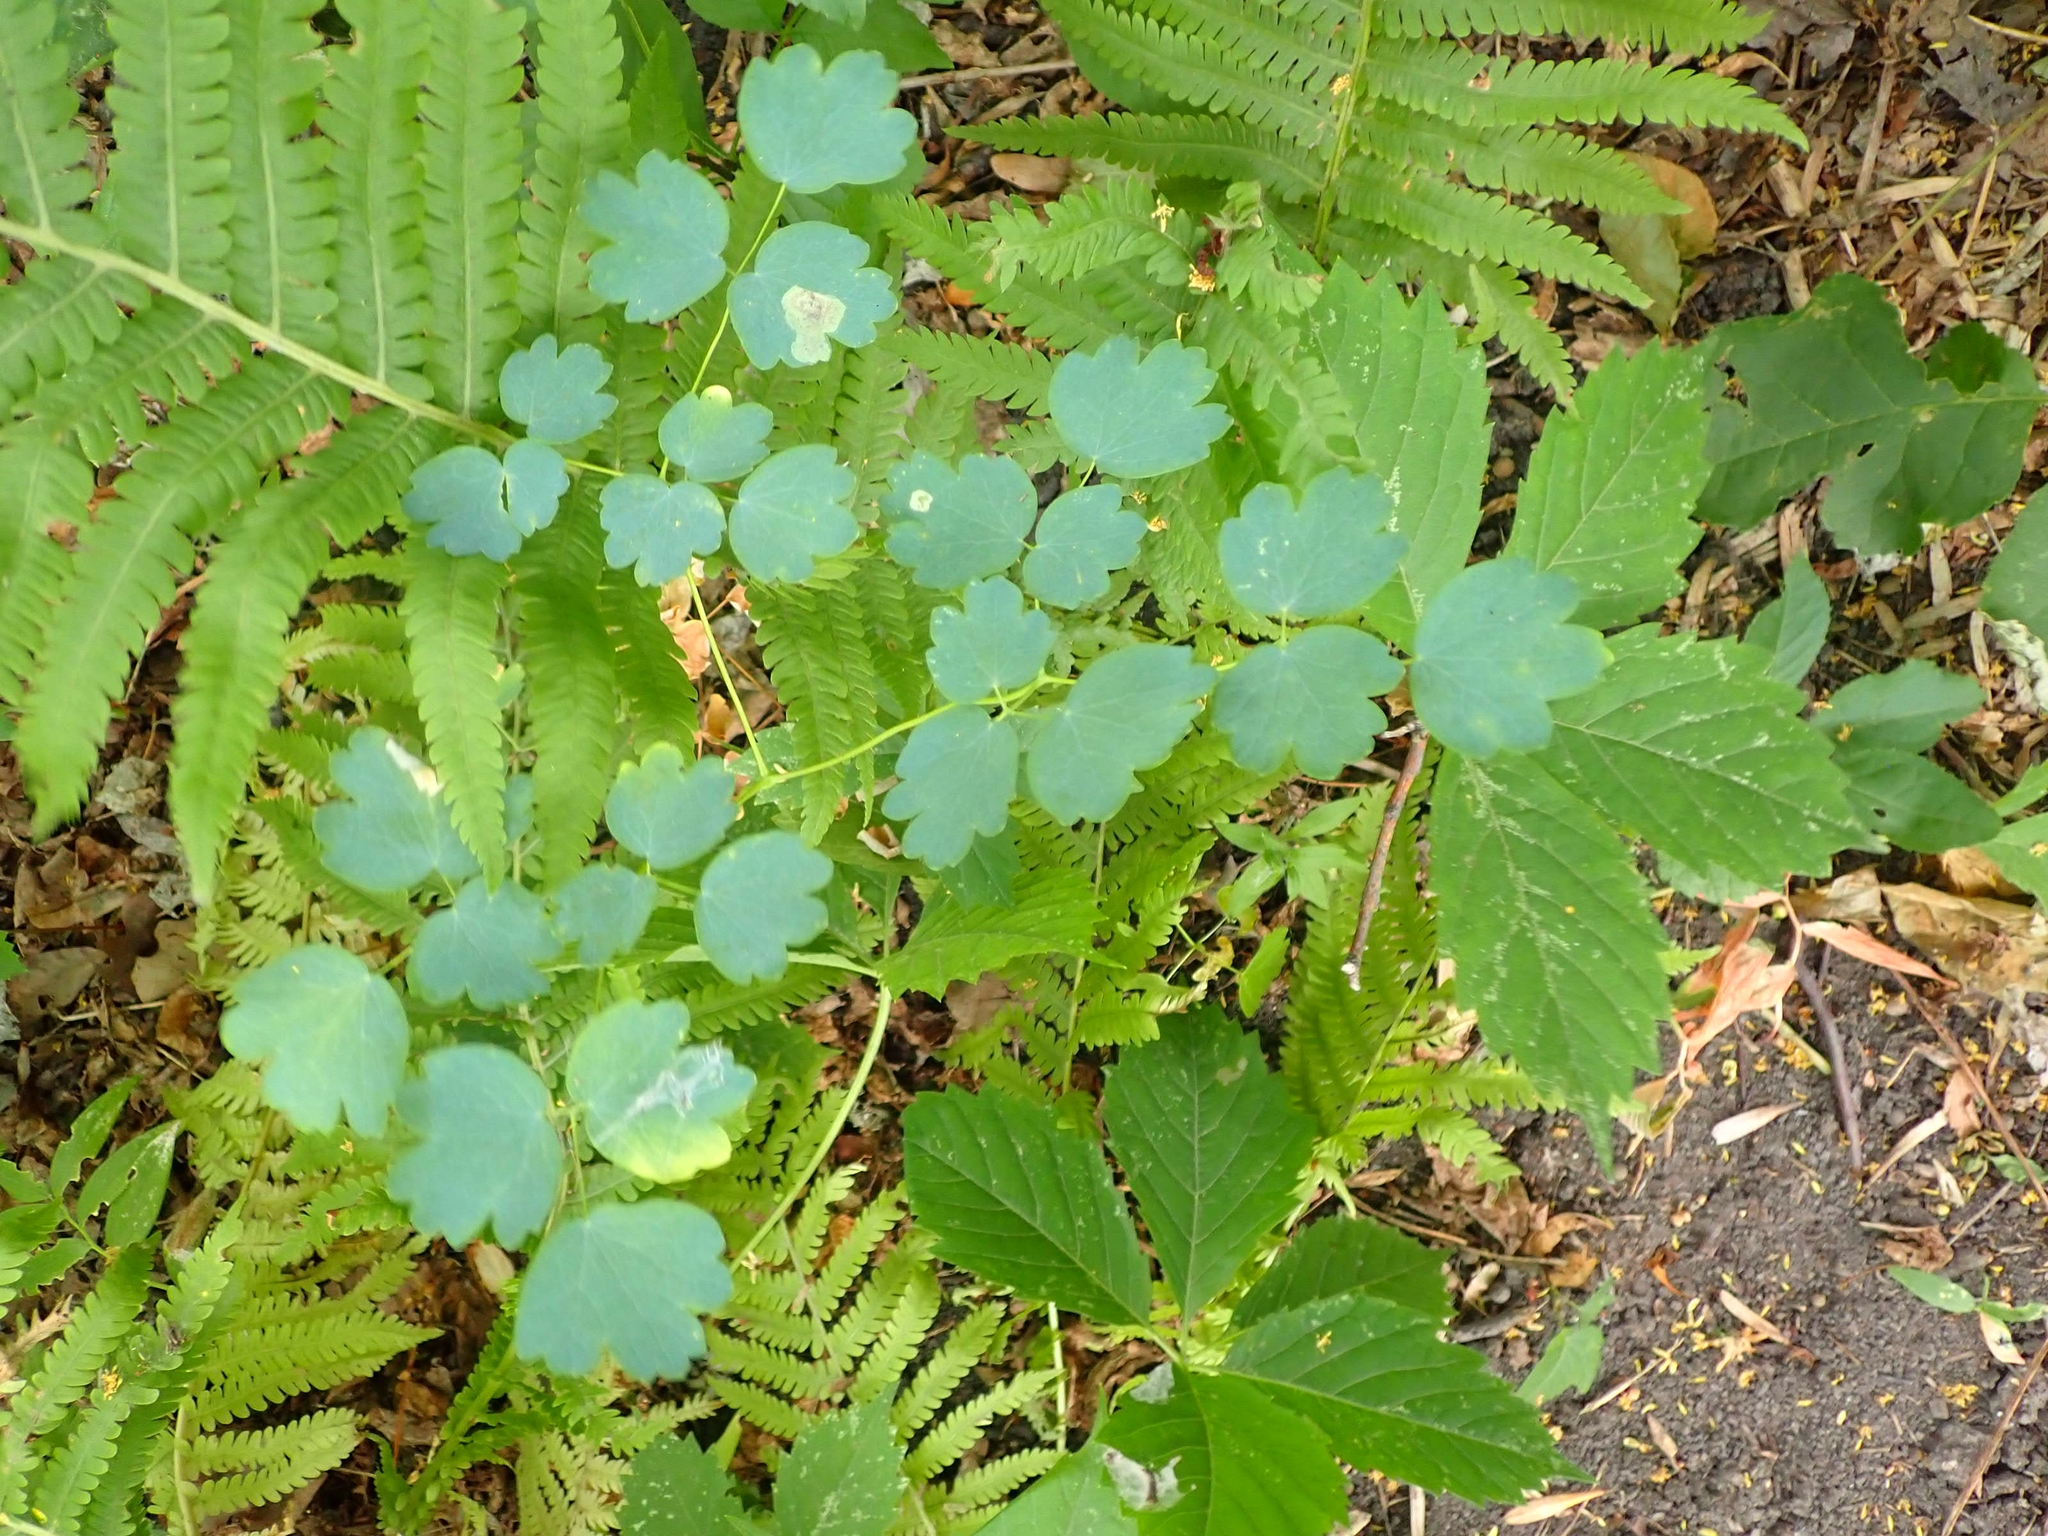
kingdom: Plantae
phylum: Tracheophyta
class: Magnoliopsida
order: Ranunculales
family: Ranunculaceae
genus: Thalictrum
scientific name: Thalictrum venulosum
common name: Early meadow-rue
